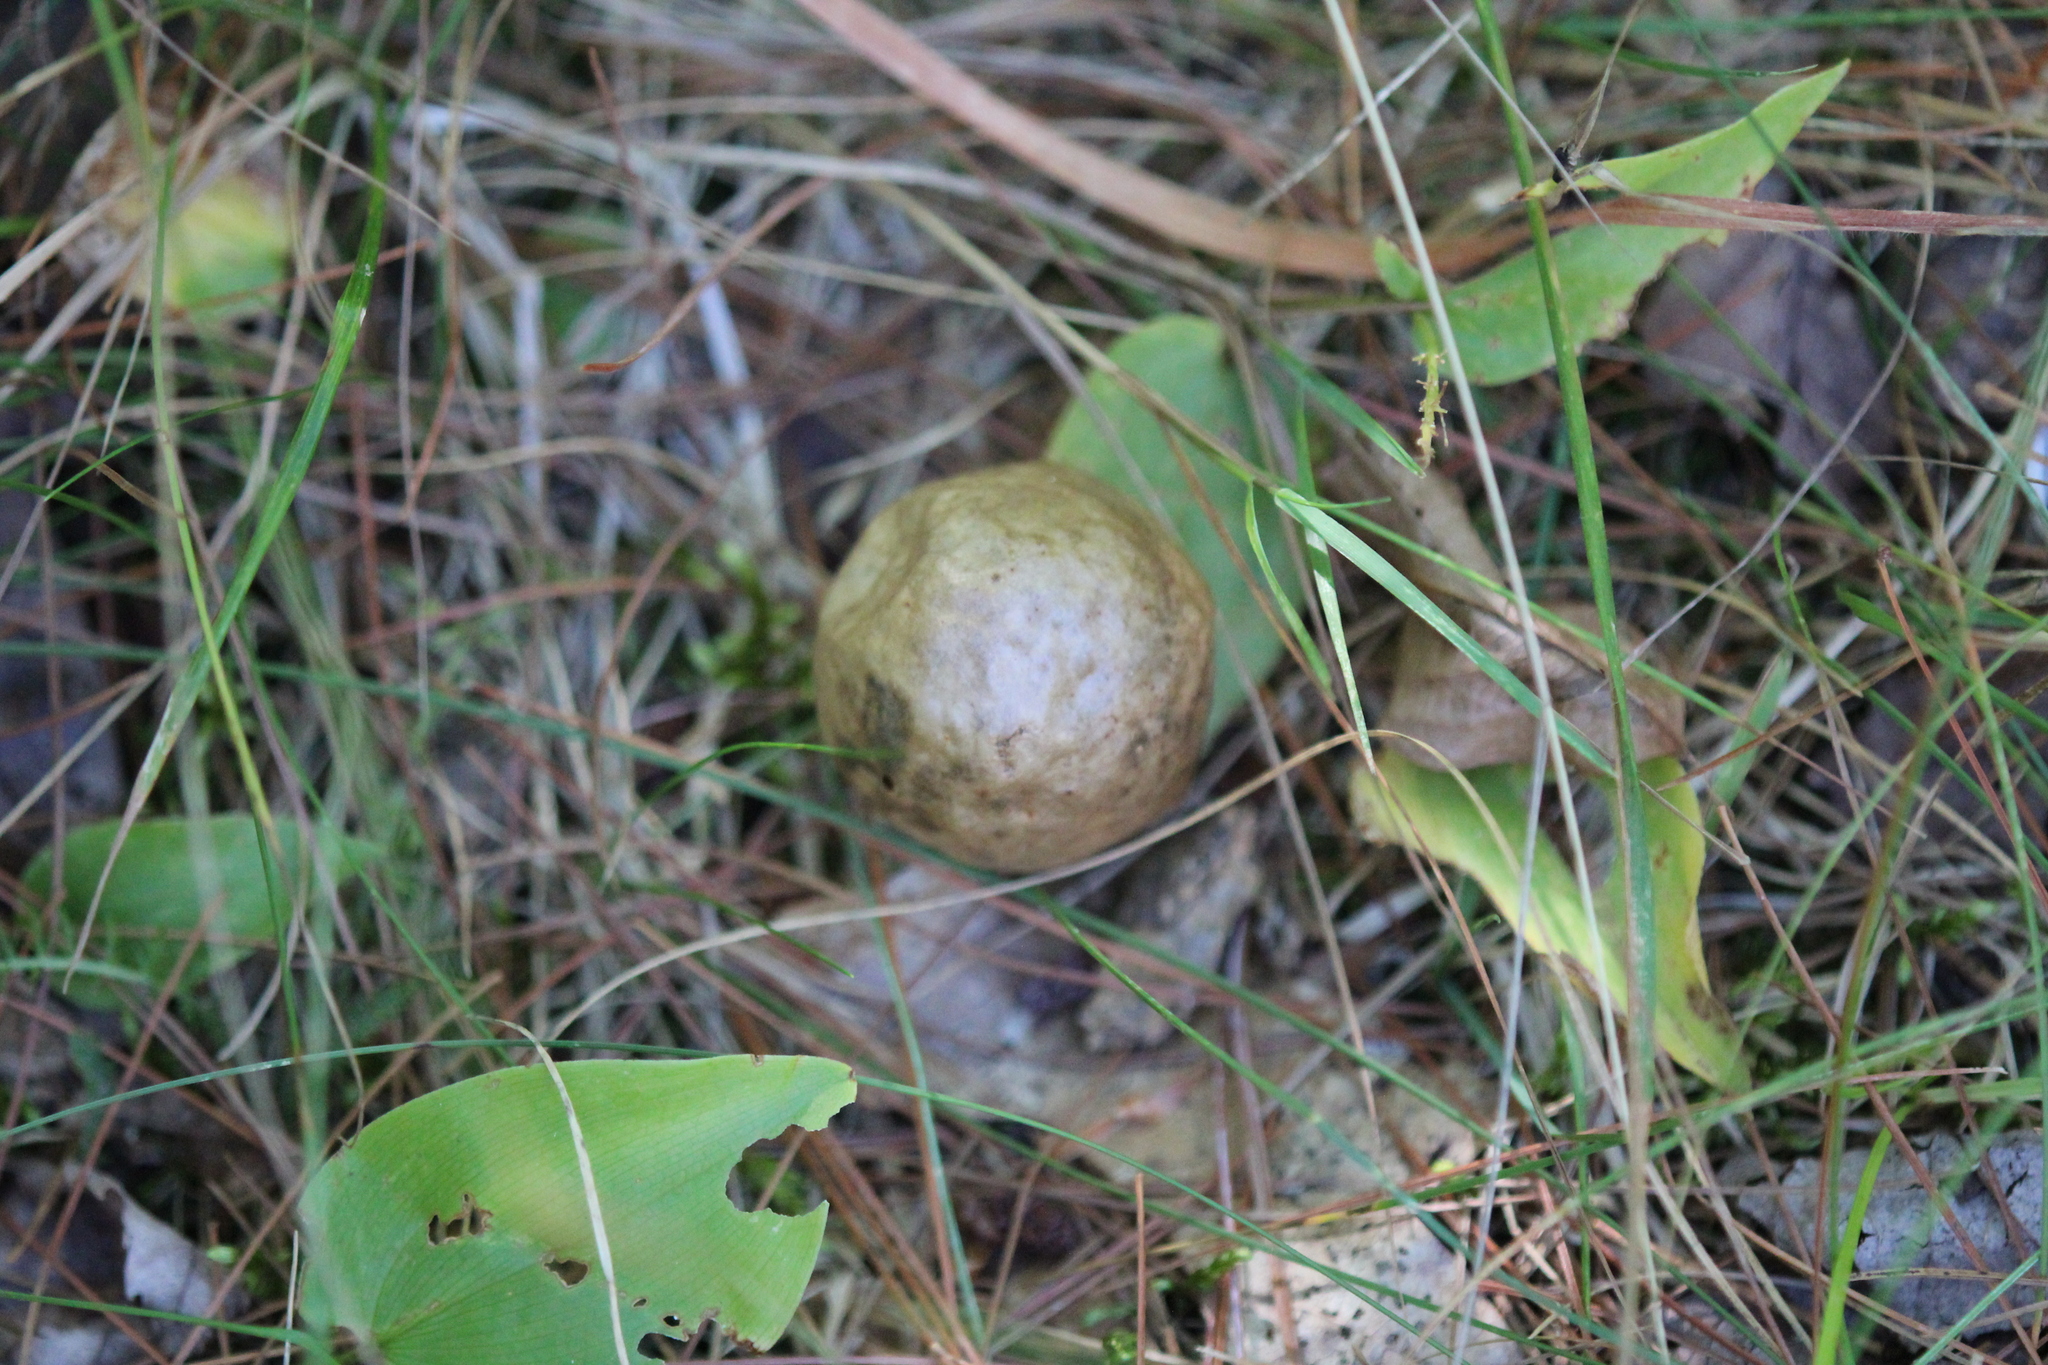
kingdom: Animalia
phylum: Arthropoda
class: Insecta
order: Hymenoptera
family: Cynipidae
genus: Amphibolips
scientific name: Amphibolips
